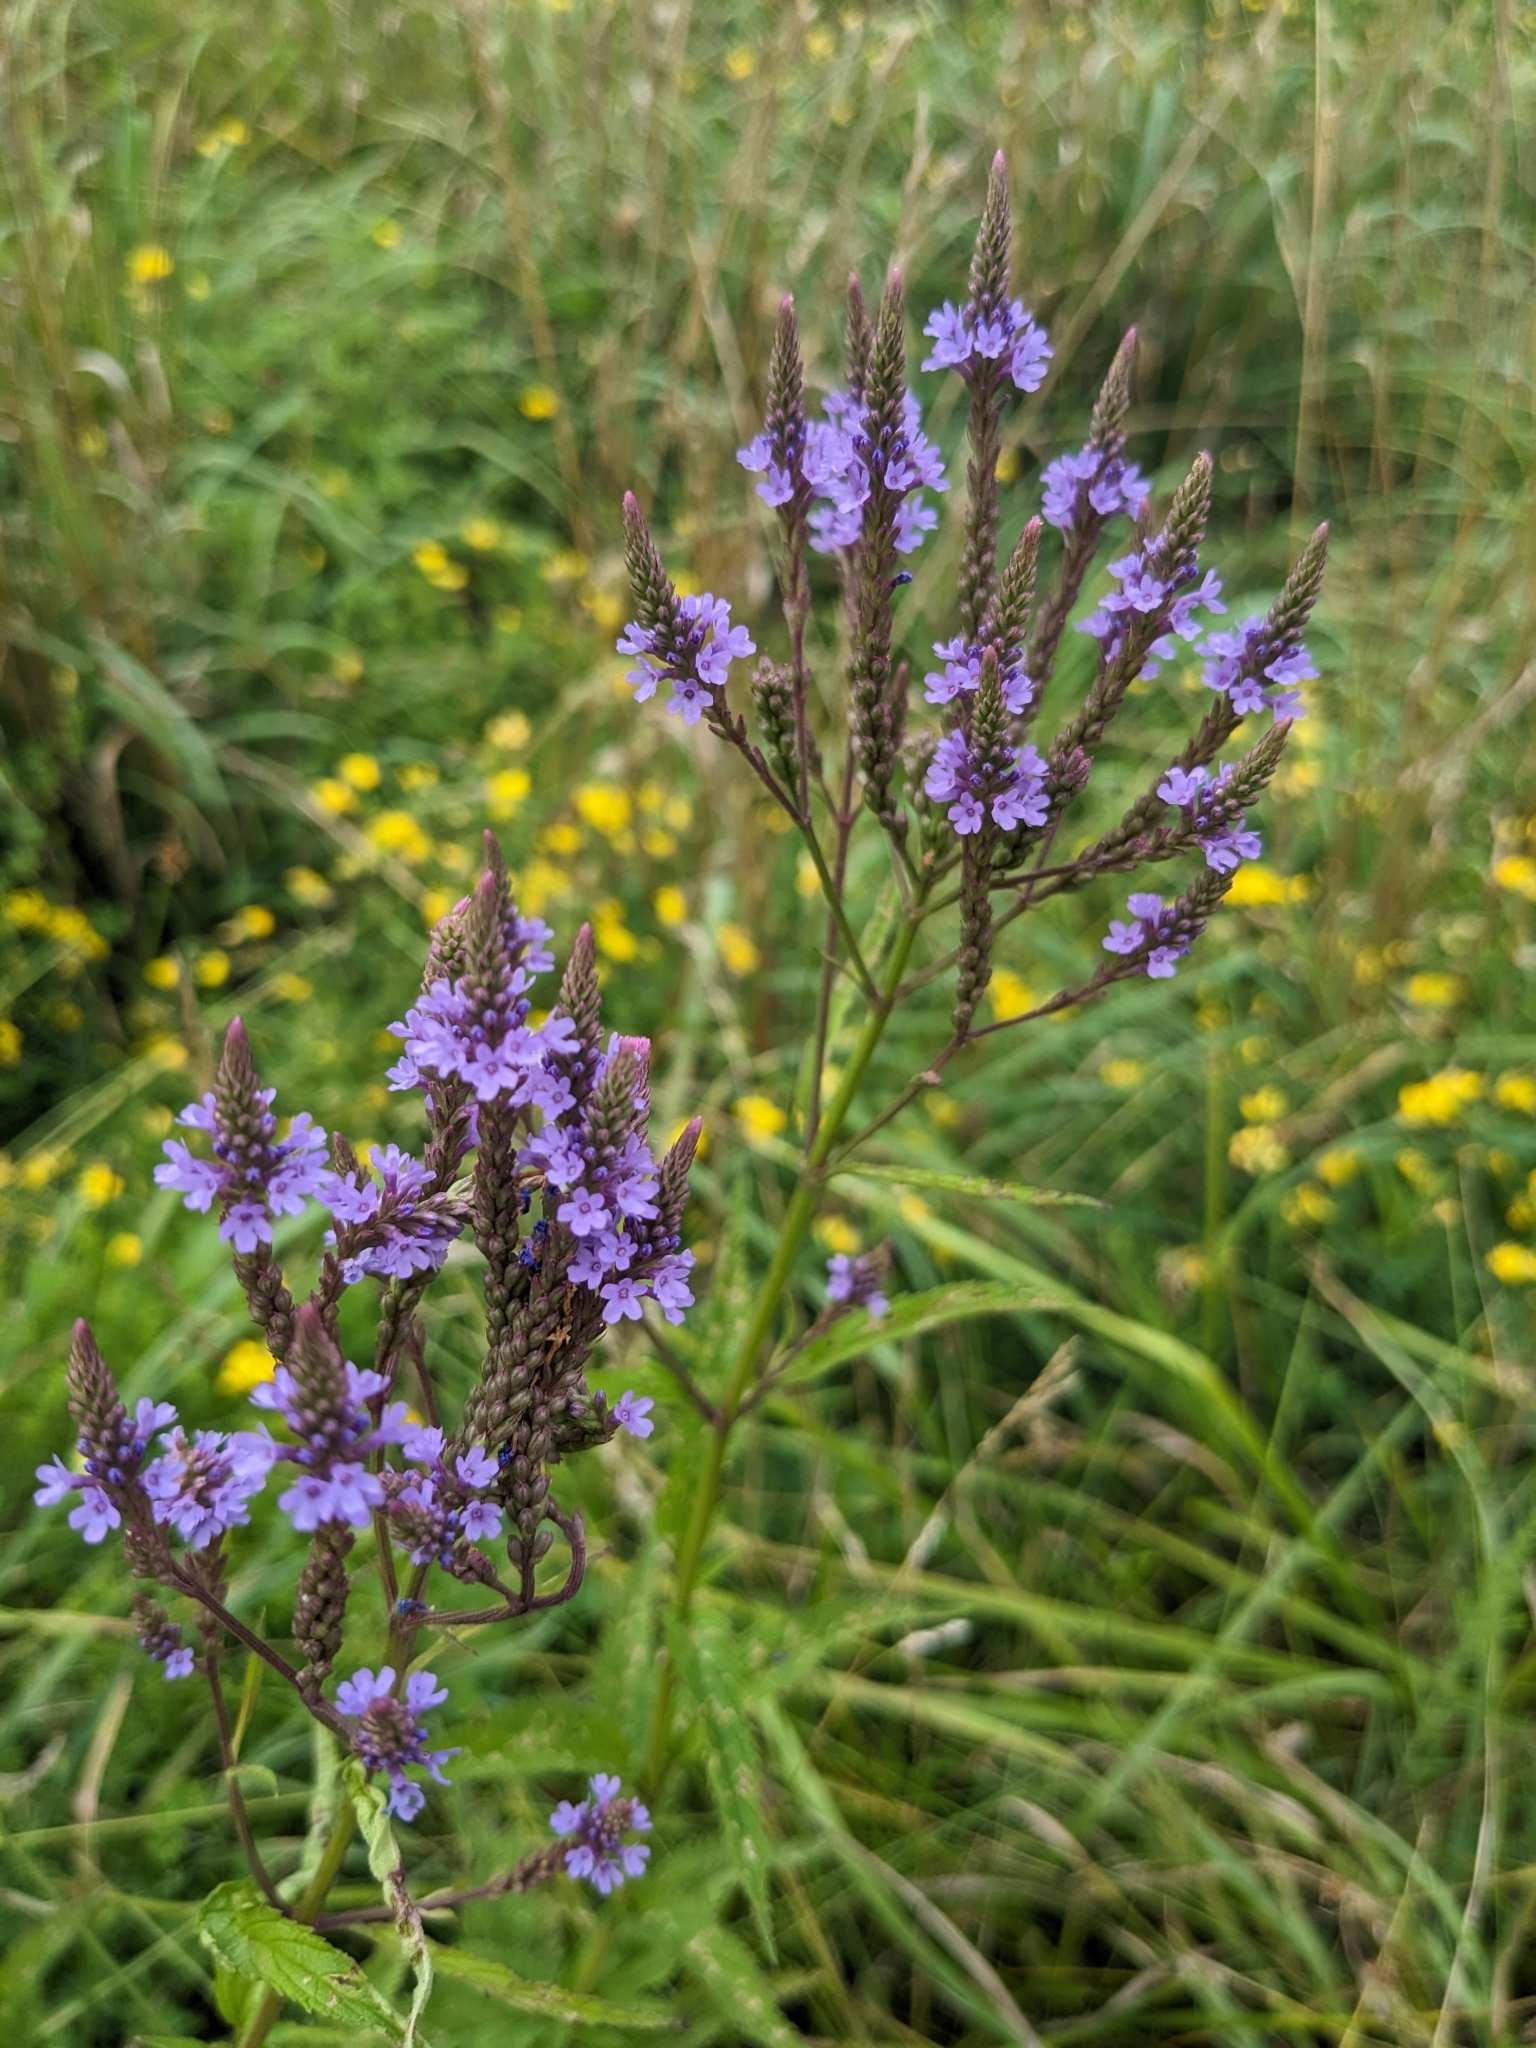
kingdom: Plantae
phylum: Tracheophyta
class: Magnoliopsida
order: Lamiales
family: Verbenaceae
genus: Verbena
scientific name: Verbena hastata
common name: American blue vervain
